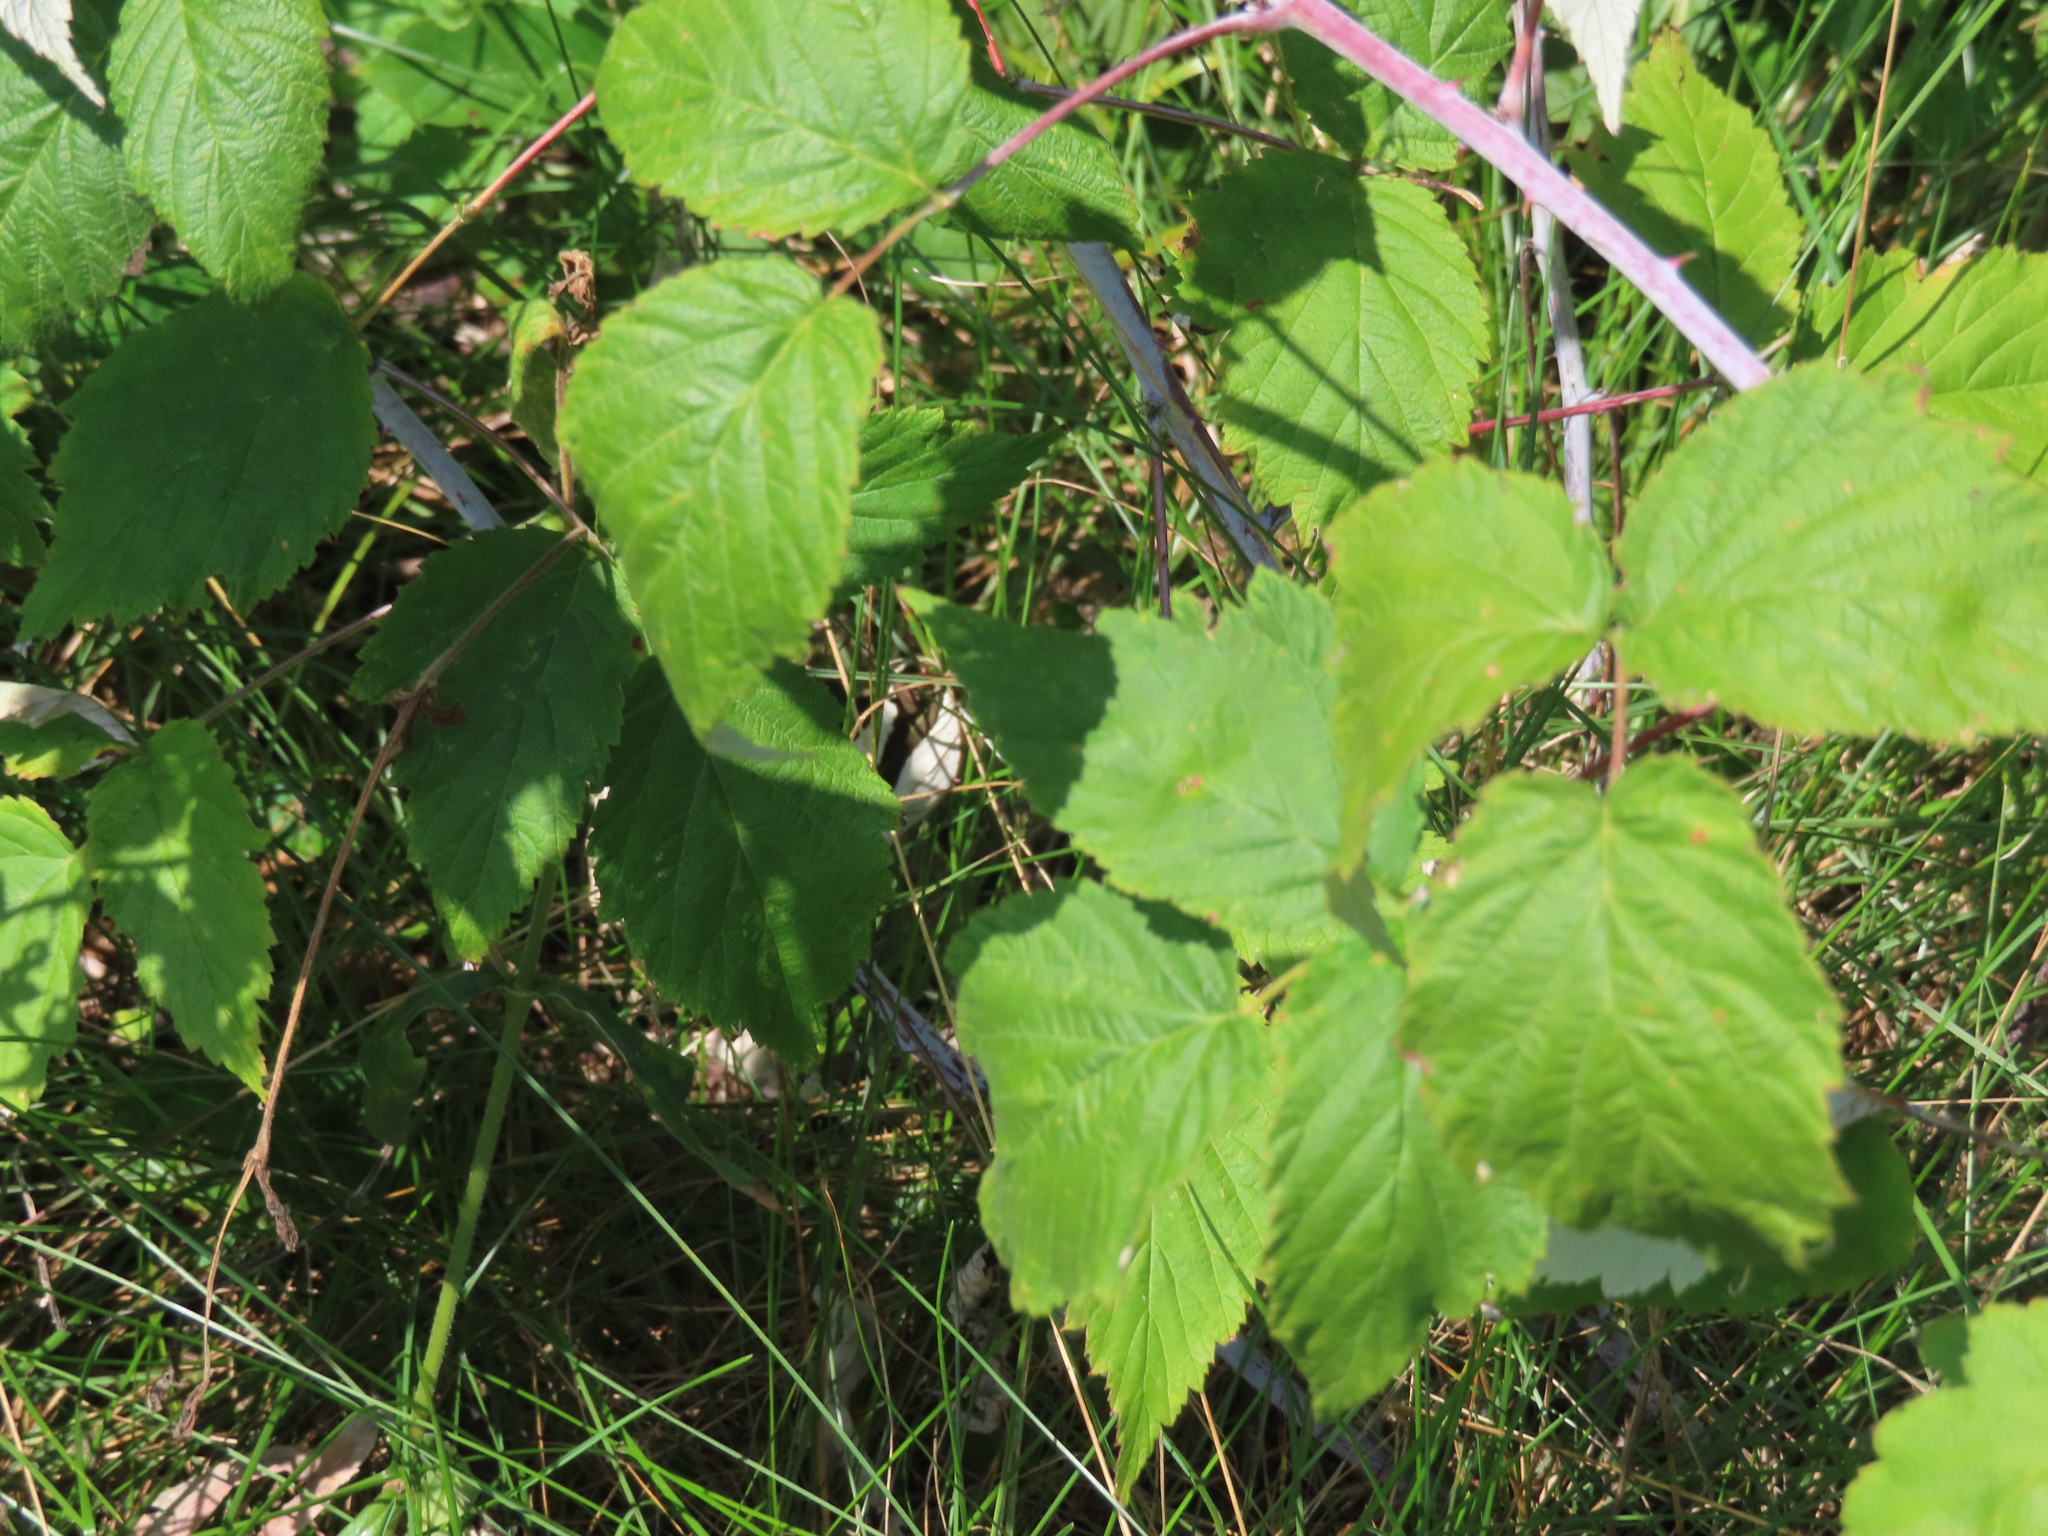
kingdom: Plantae
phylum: Tracheophyta
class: Magnoliopsida
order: Rosales
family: Rosaceae
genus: Rubus
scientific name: Rubus occidentalis
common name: Black raspberry
